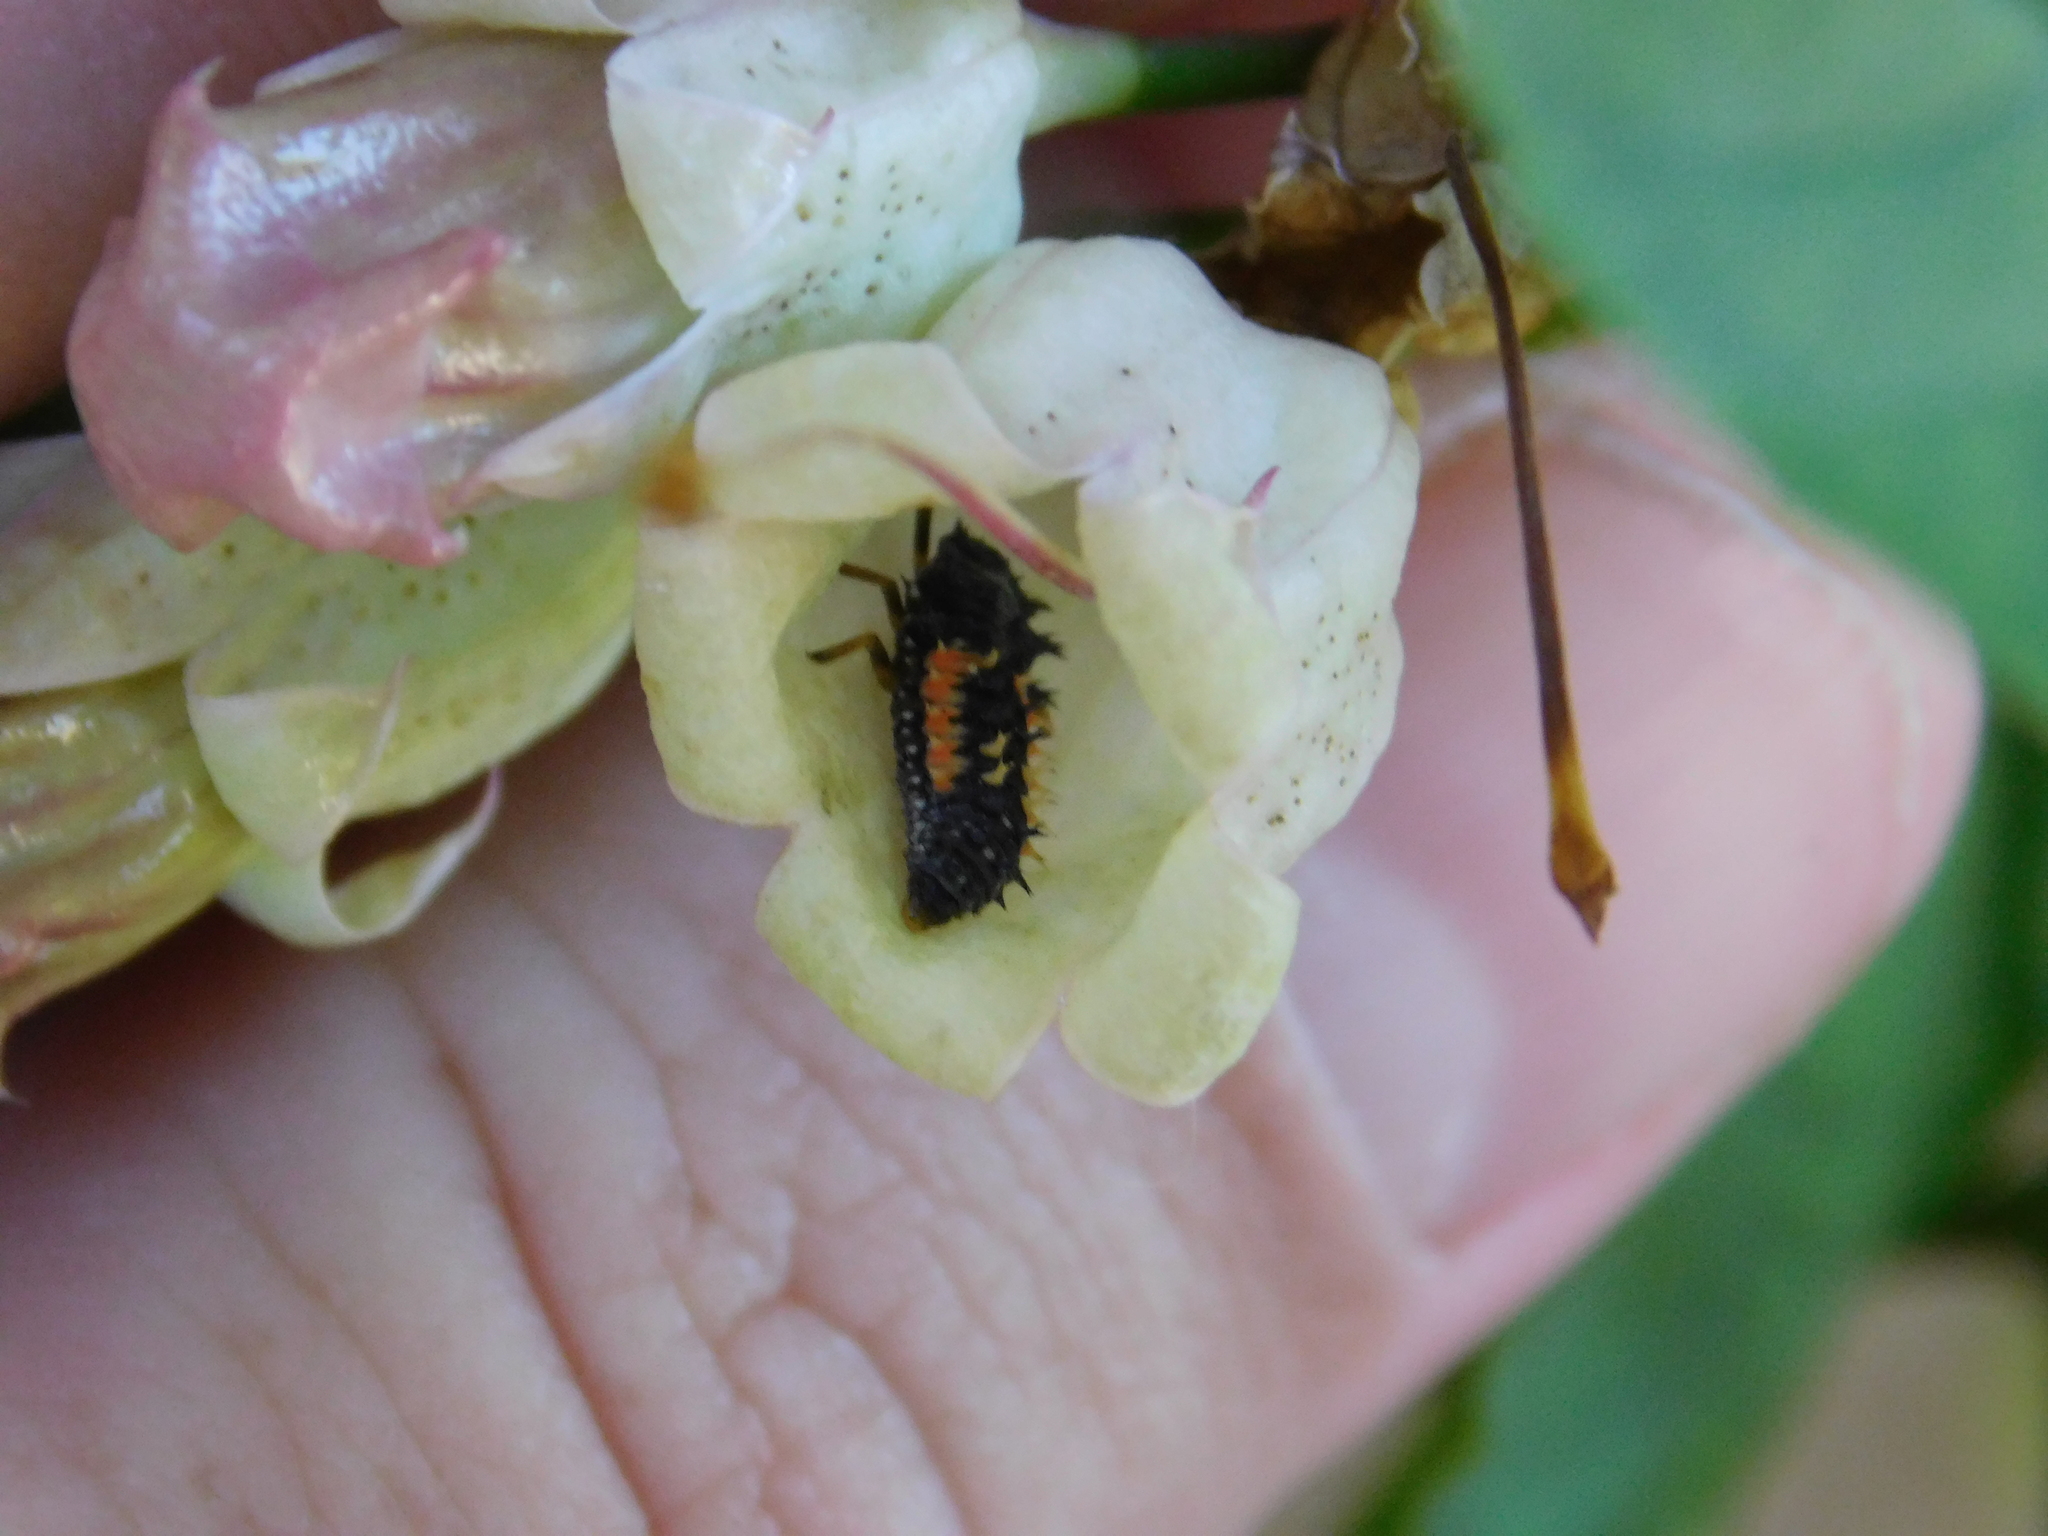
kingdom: Animalia
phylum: Arthropoda
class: Insecta
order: Coleoptera
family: Coccinellidae
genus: Harmonia
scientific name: Harmonia axyridis
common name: Harlequin ladybird
